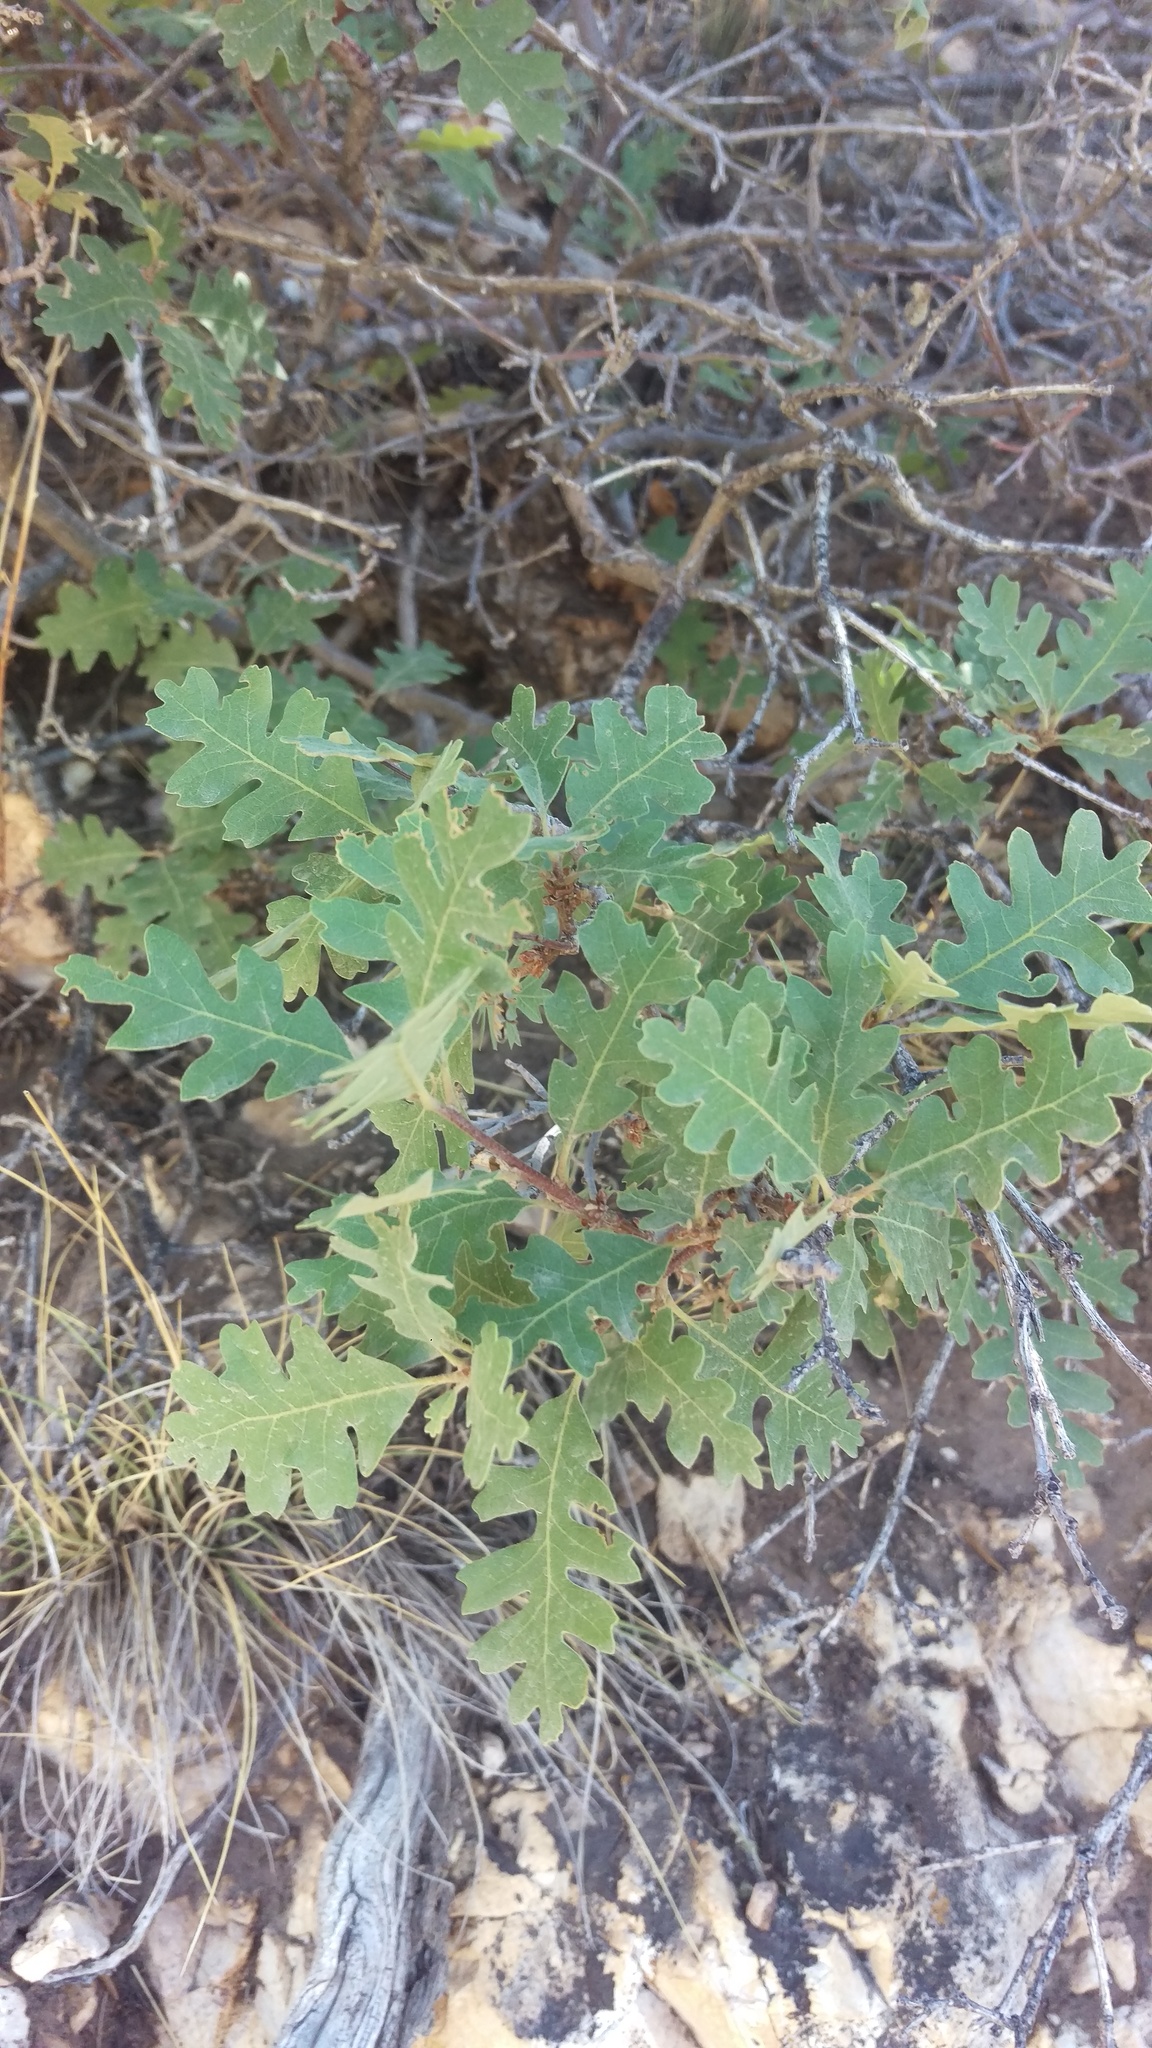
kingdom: Plantae
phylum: Tracheophyta
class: Magnoliopsida
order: Fagales
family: Fagaceae
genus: Quercus
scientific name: Quercus gambelii
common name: Gambel oak
